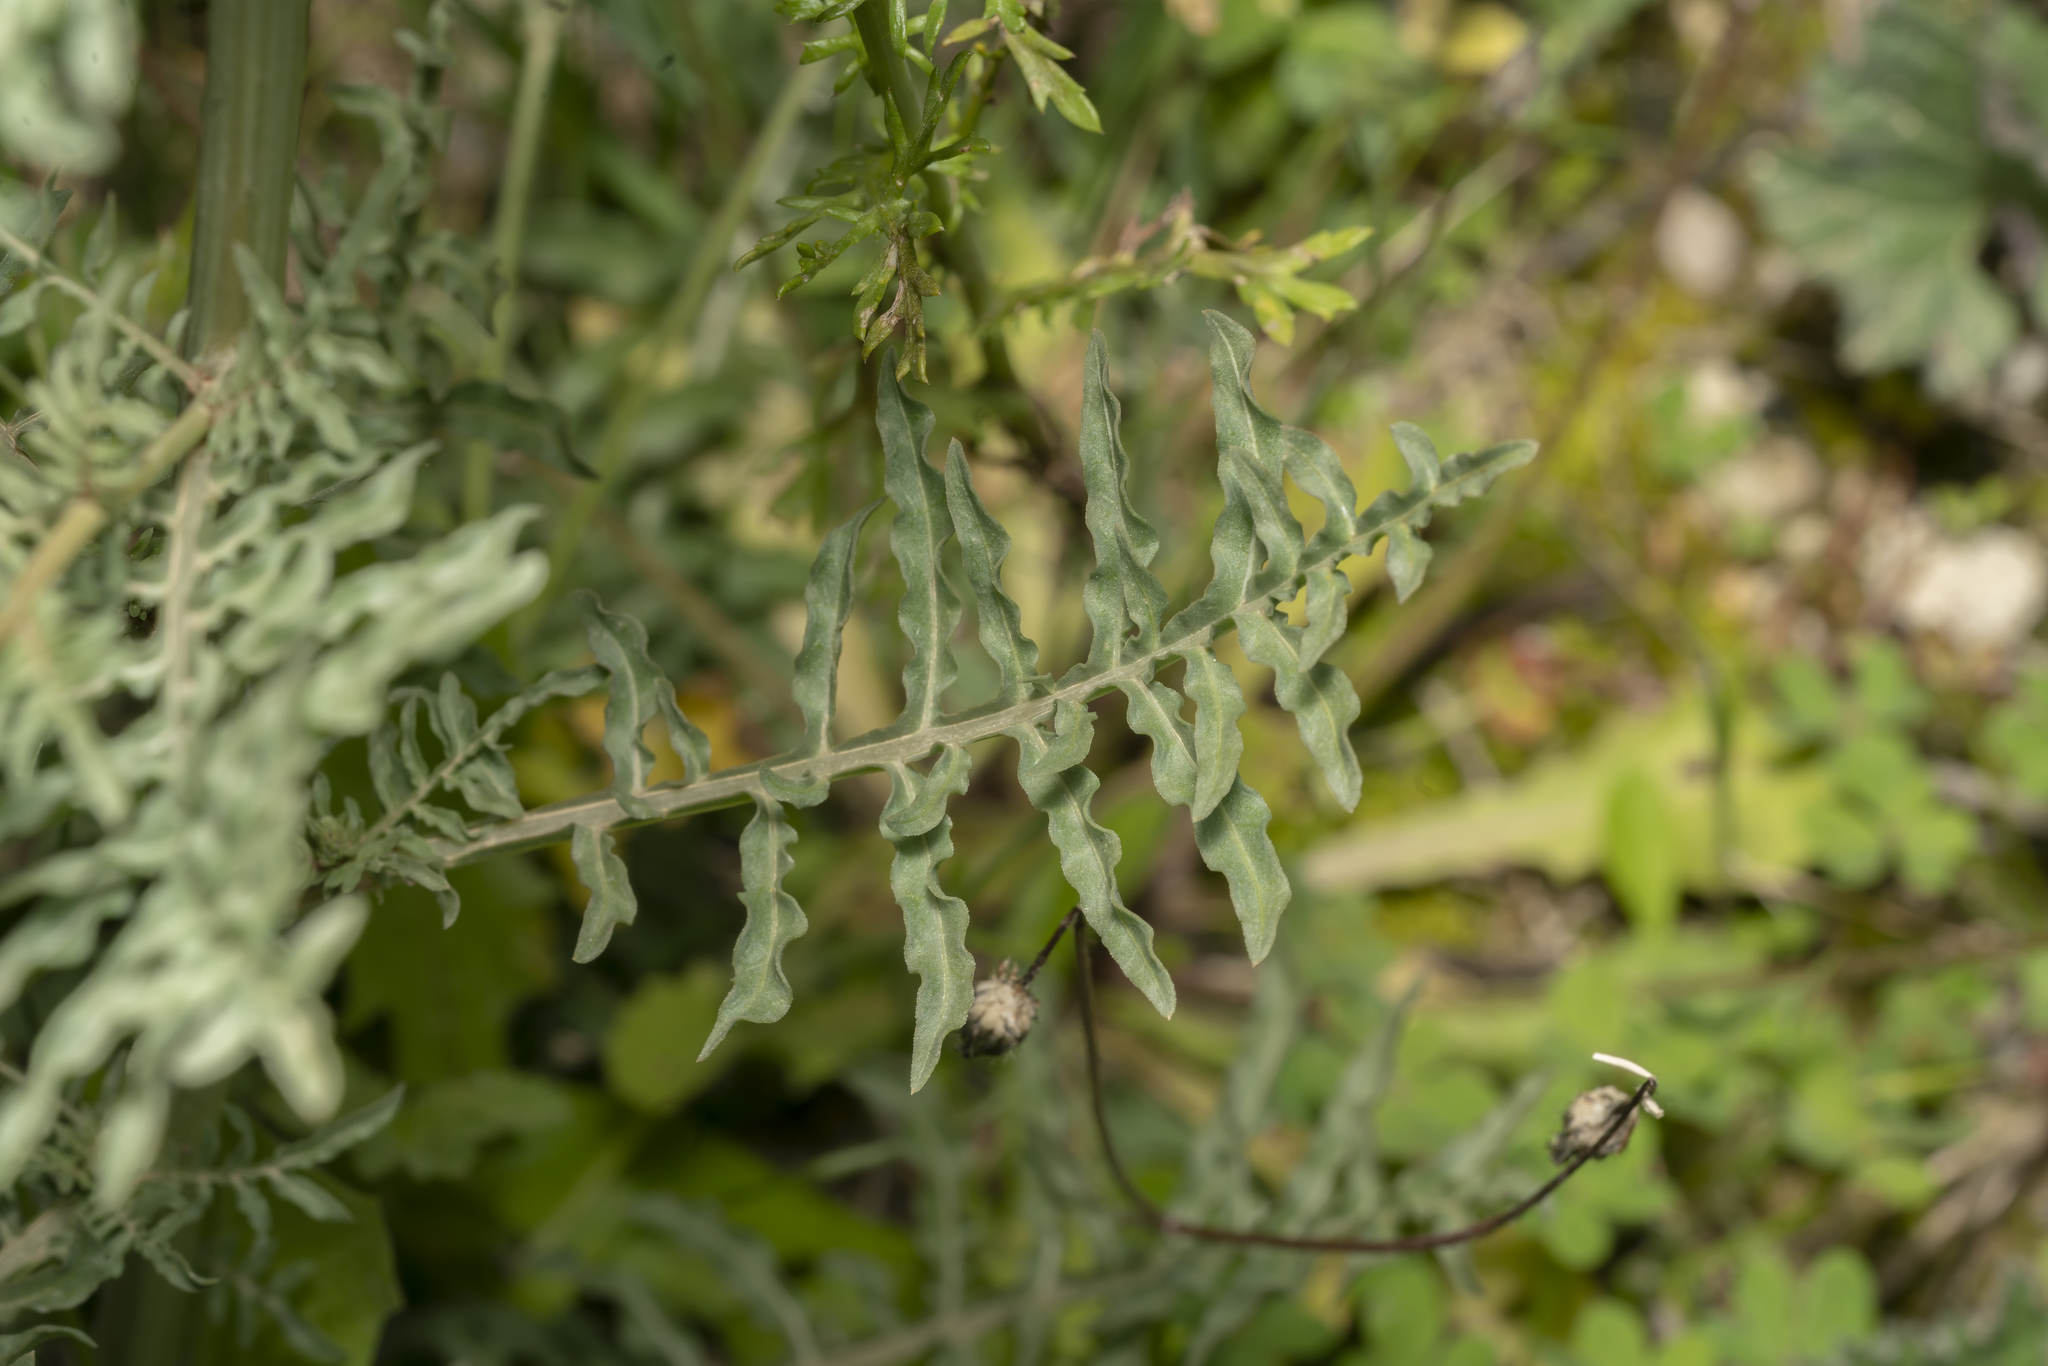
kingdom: Plantae
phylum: Tracheophyta
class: Magnoliopsida
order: Brassicales
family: Resedaceae
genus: Reseda
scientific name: Reseda alba
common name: White mignonette
